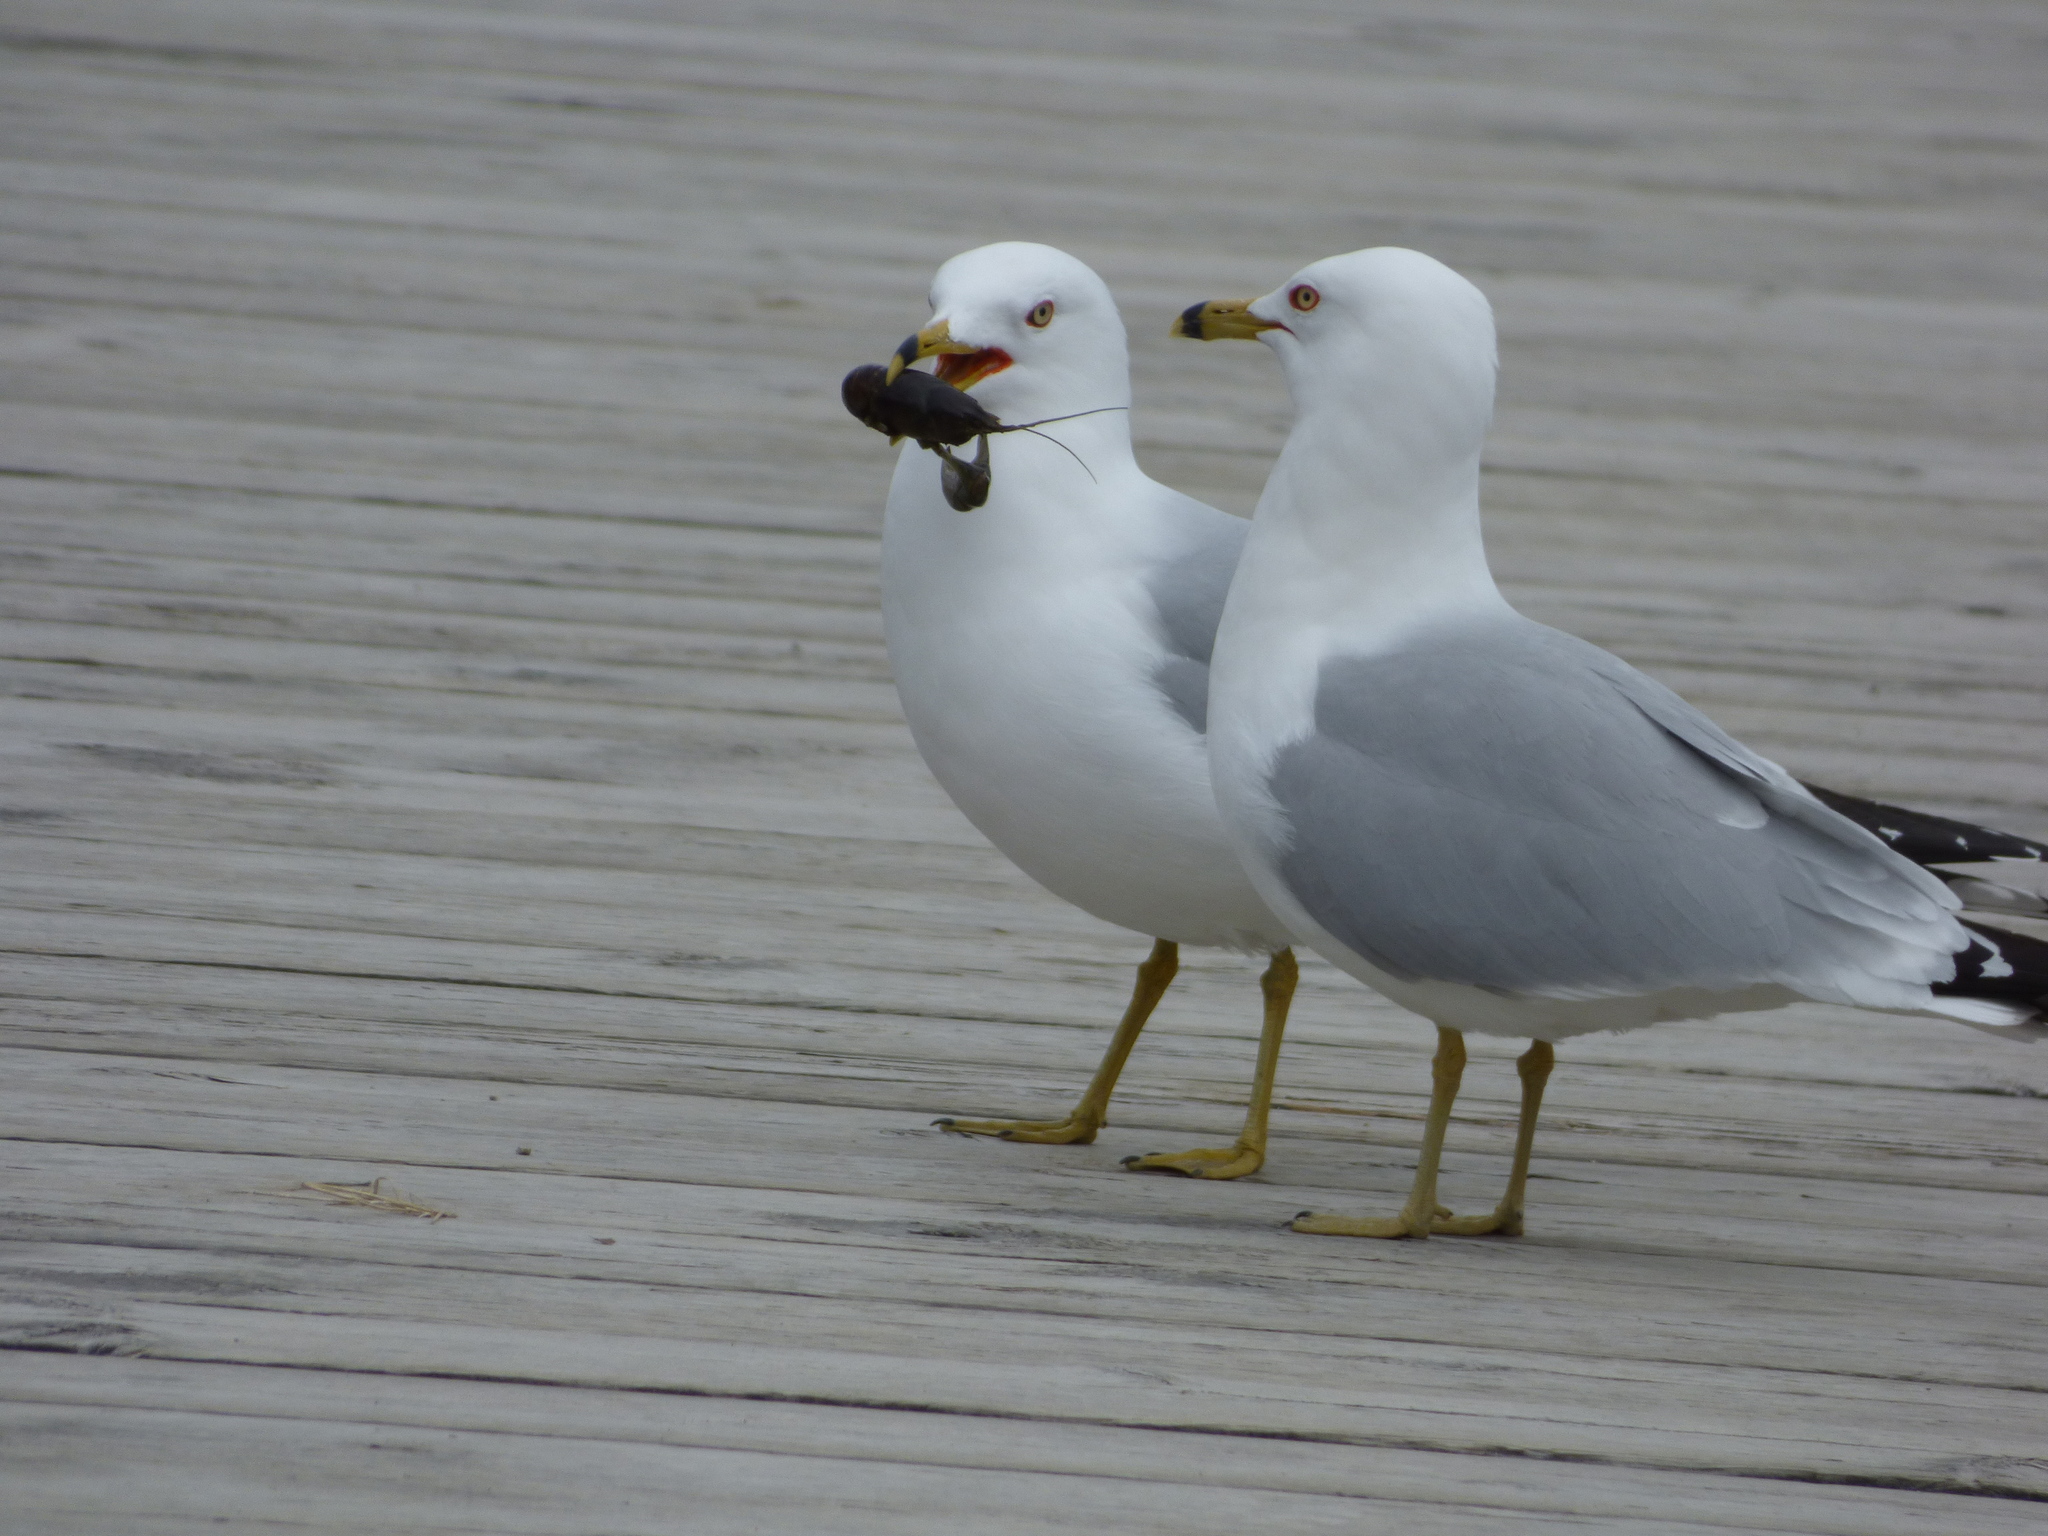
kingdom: Animalia
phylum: Chordata
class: Aves
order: Charadriiformes
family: Laridae
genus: Larus
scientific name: Larus delawarensis
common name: Ring-billed gull
